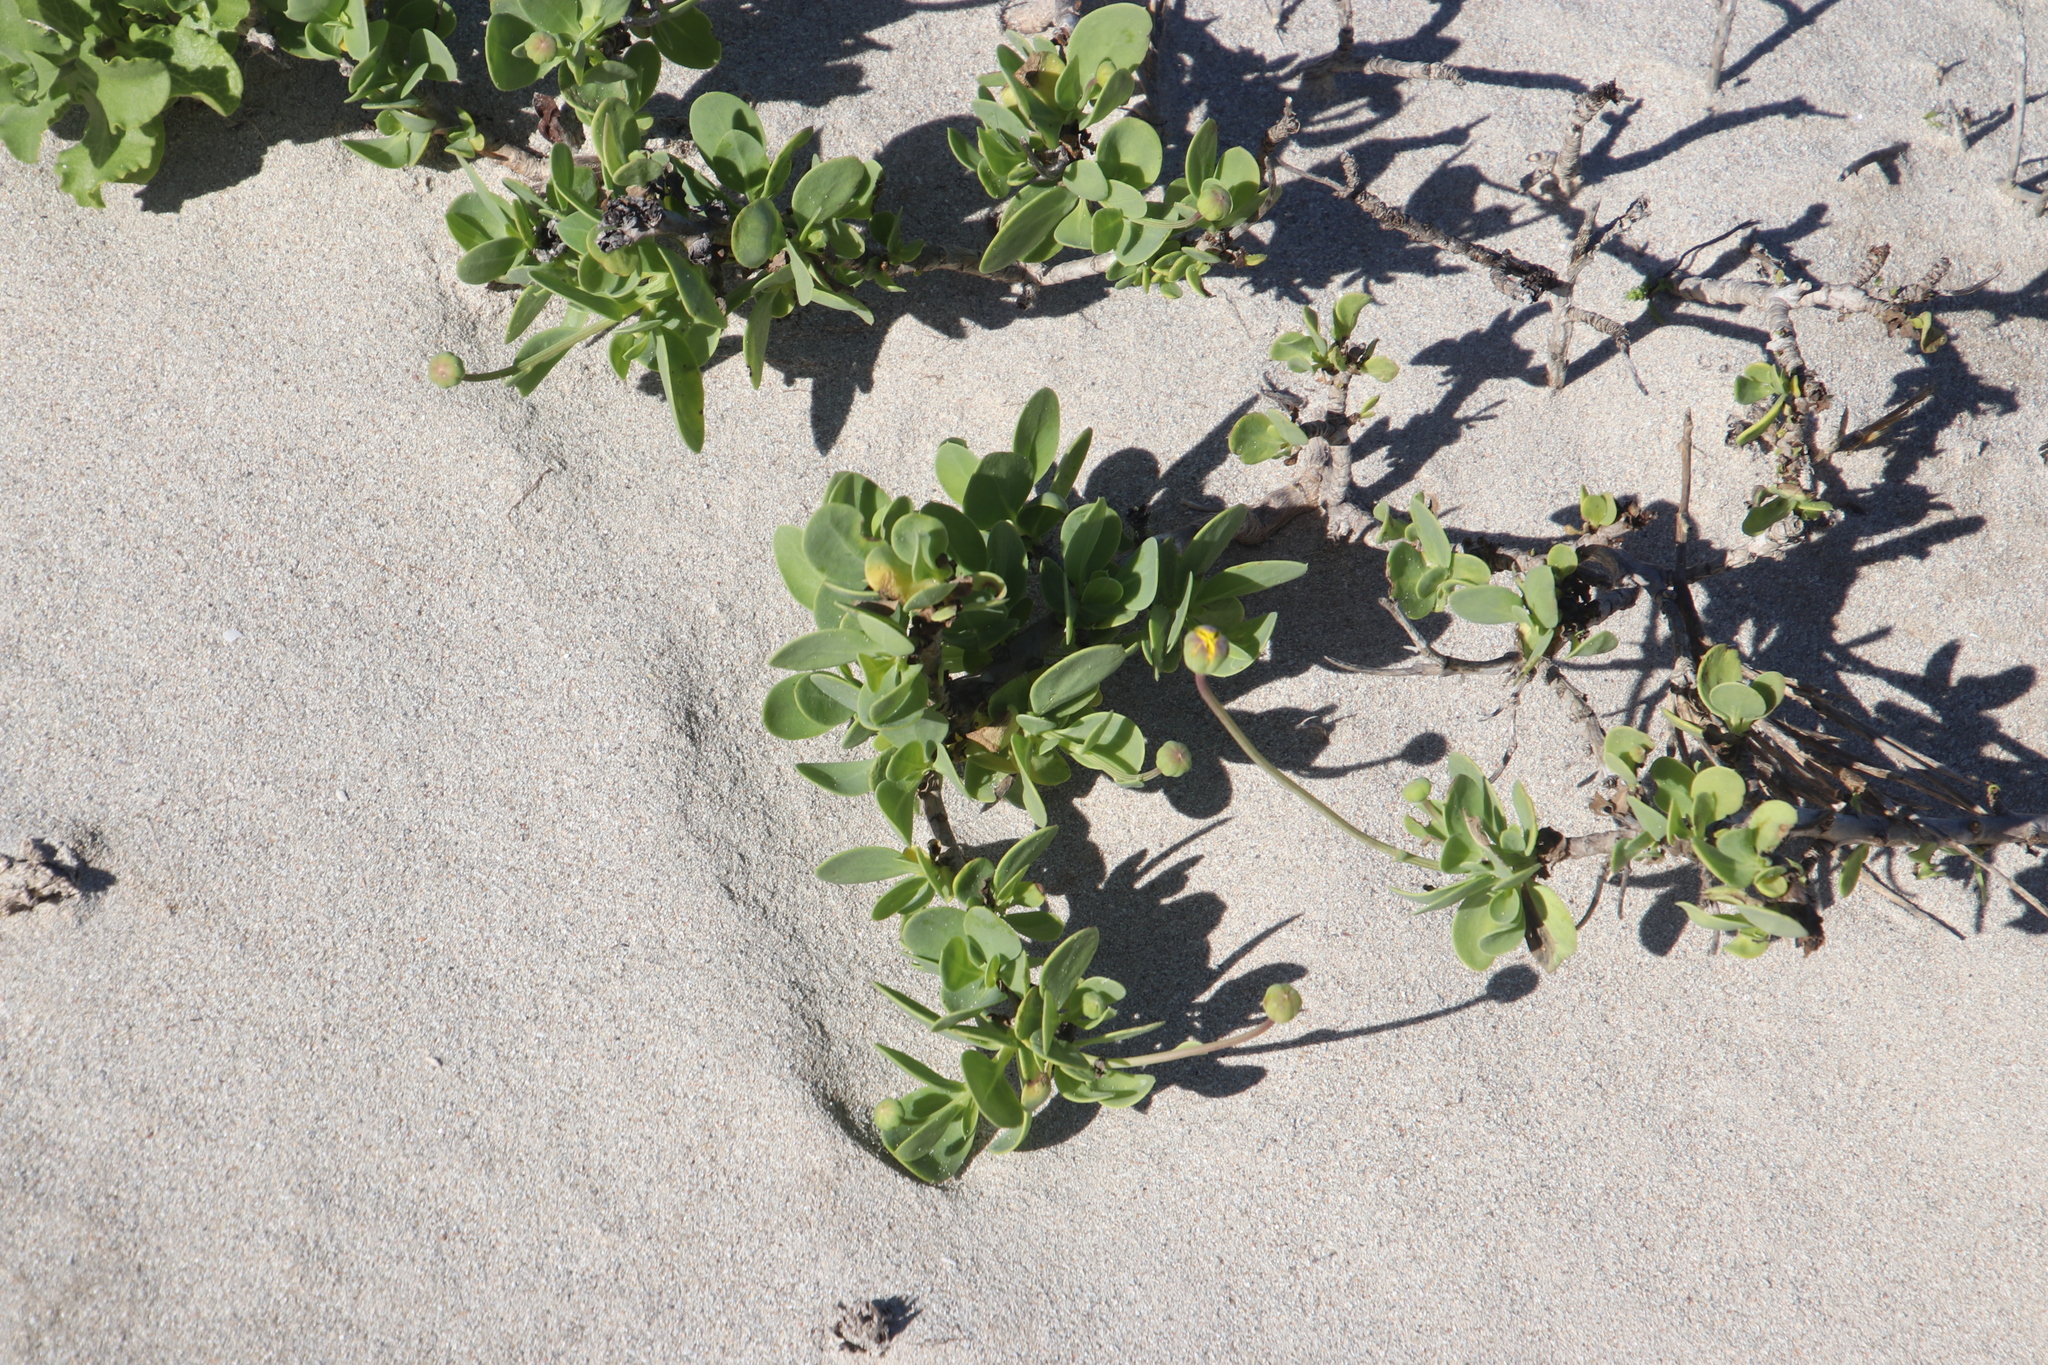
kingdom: Plantae
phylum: Tracheophyta
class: Magnoliopsida
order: Asterales
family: Asteraceae
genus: Othonna
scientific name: Othonna coronopifolia
